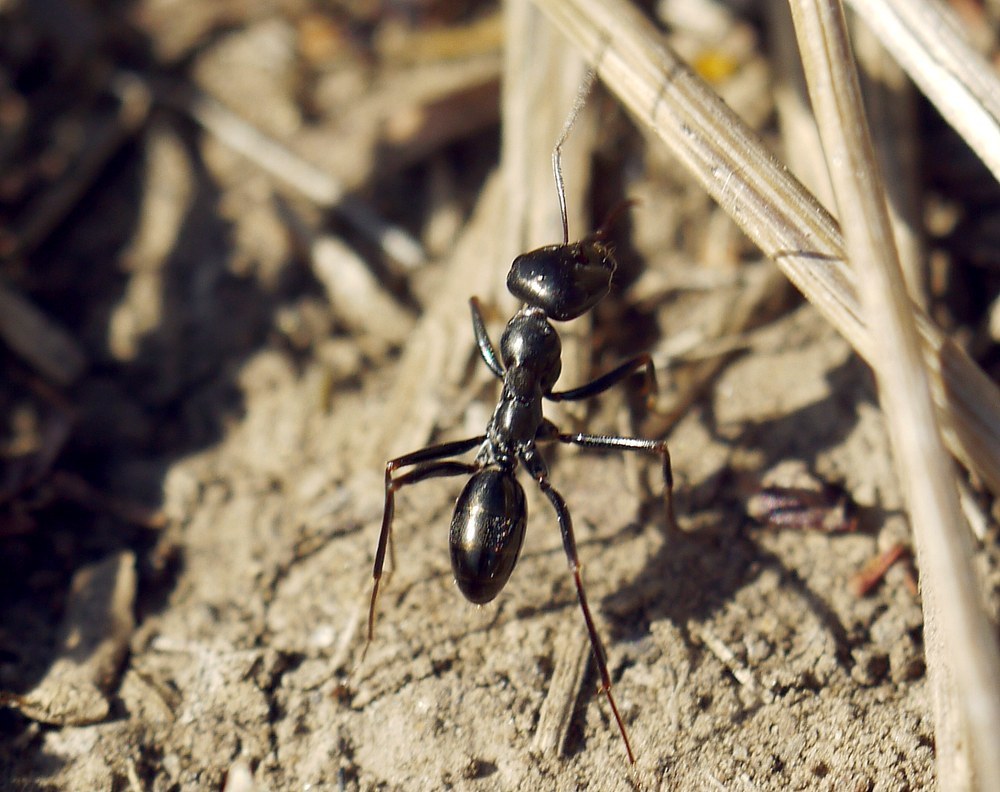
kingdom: Animalia
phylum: Arthropoda
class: Insecta
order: Hymenoptera
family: Formicidae
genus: Cataglyphis
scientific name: Cataglyphis aenescens
